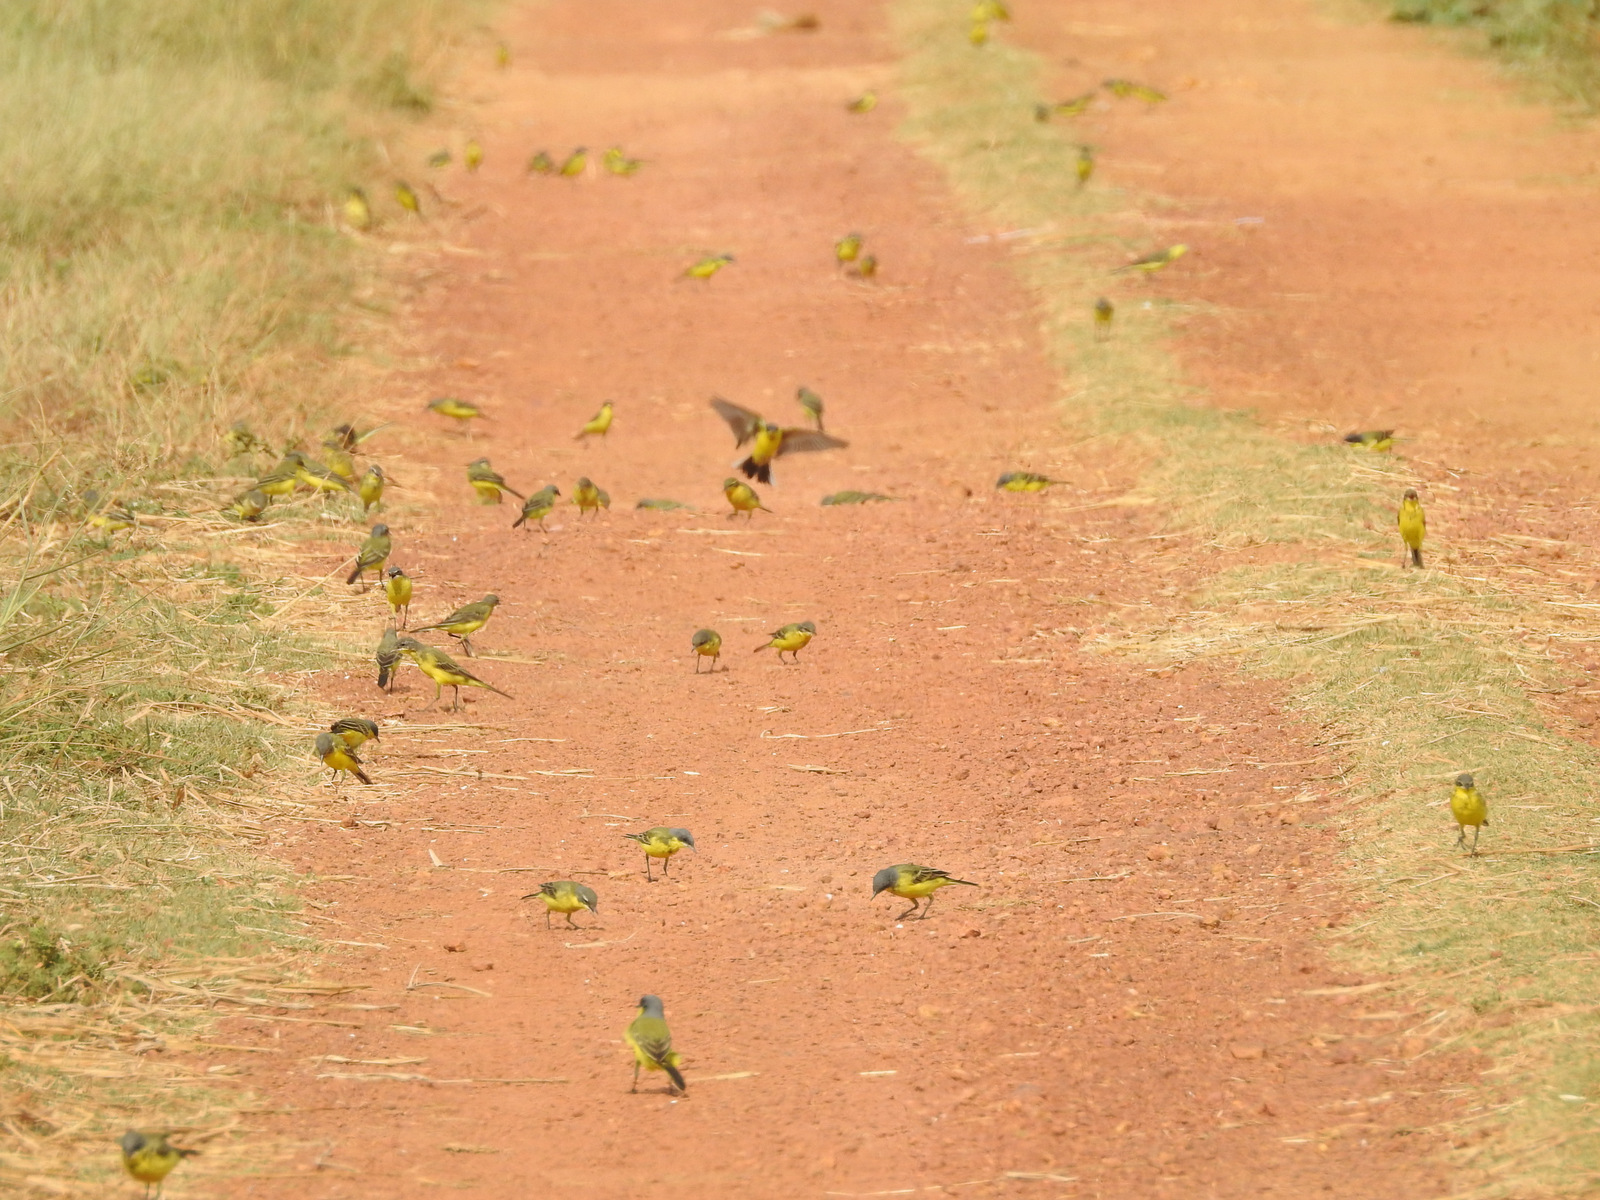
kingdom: Animalia
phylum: Chordata
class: Aves
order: Passeriformes
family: Motacillidae
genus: Motacilla
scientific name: Motacilla flava
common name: Western yellow wagtail
